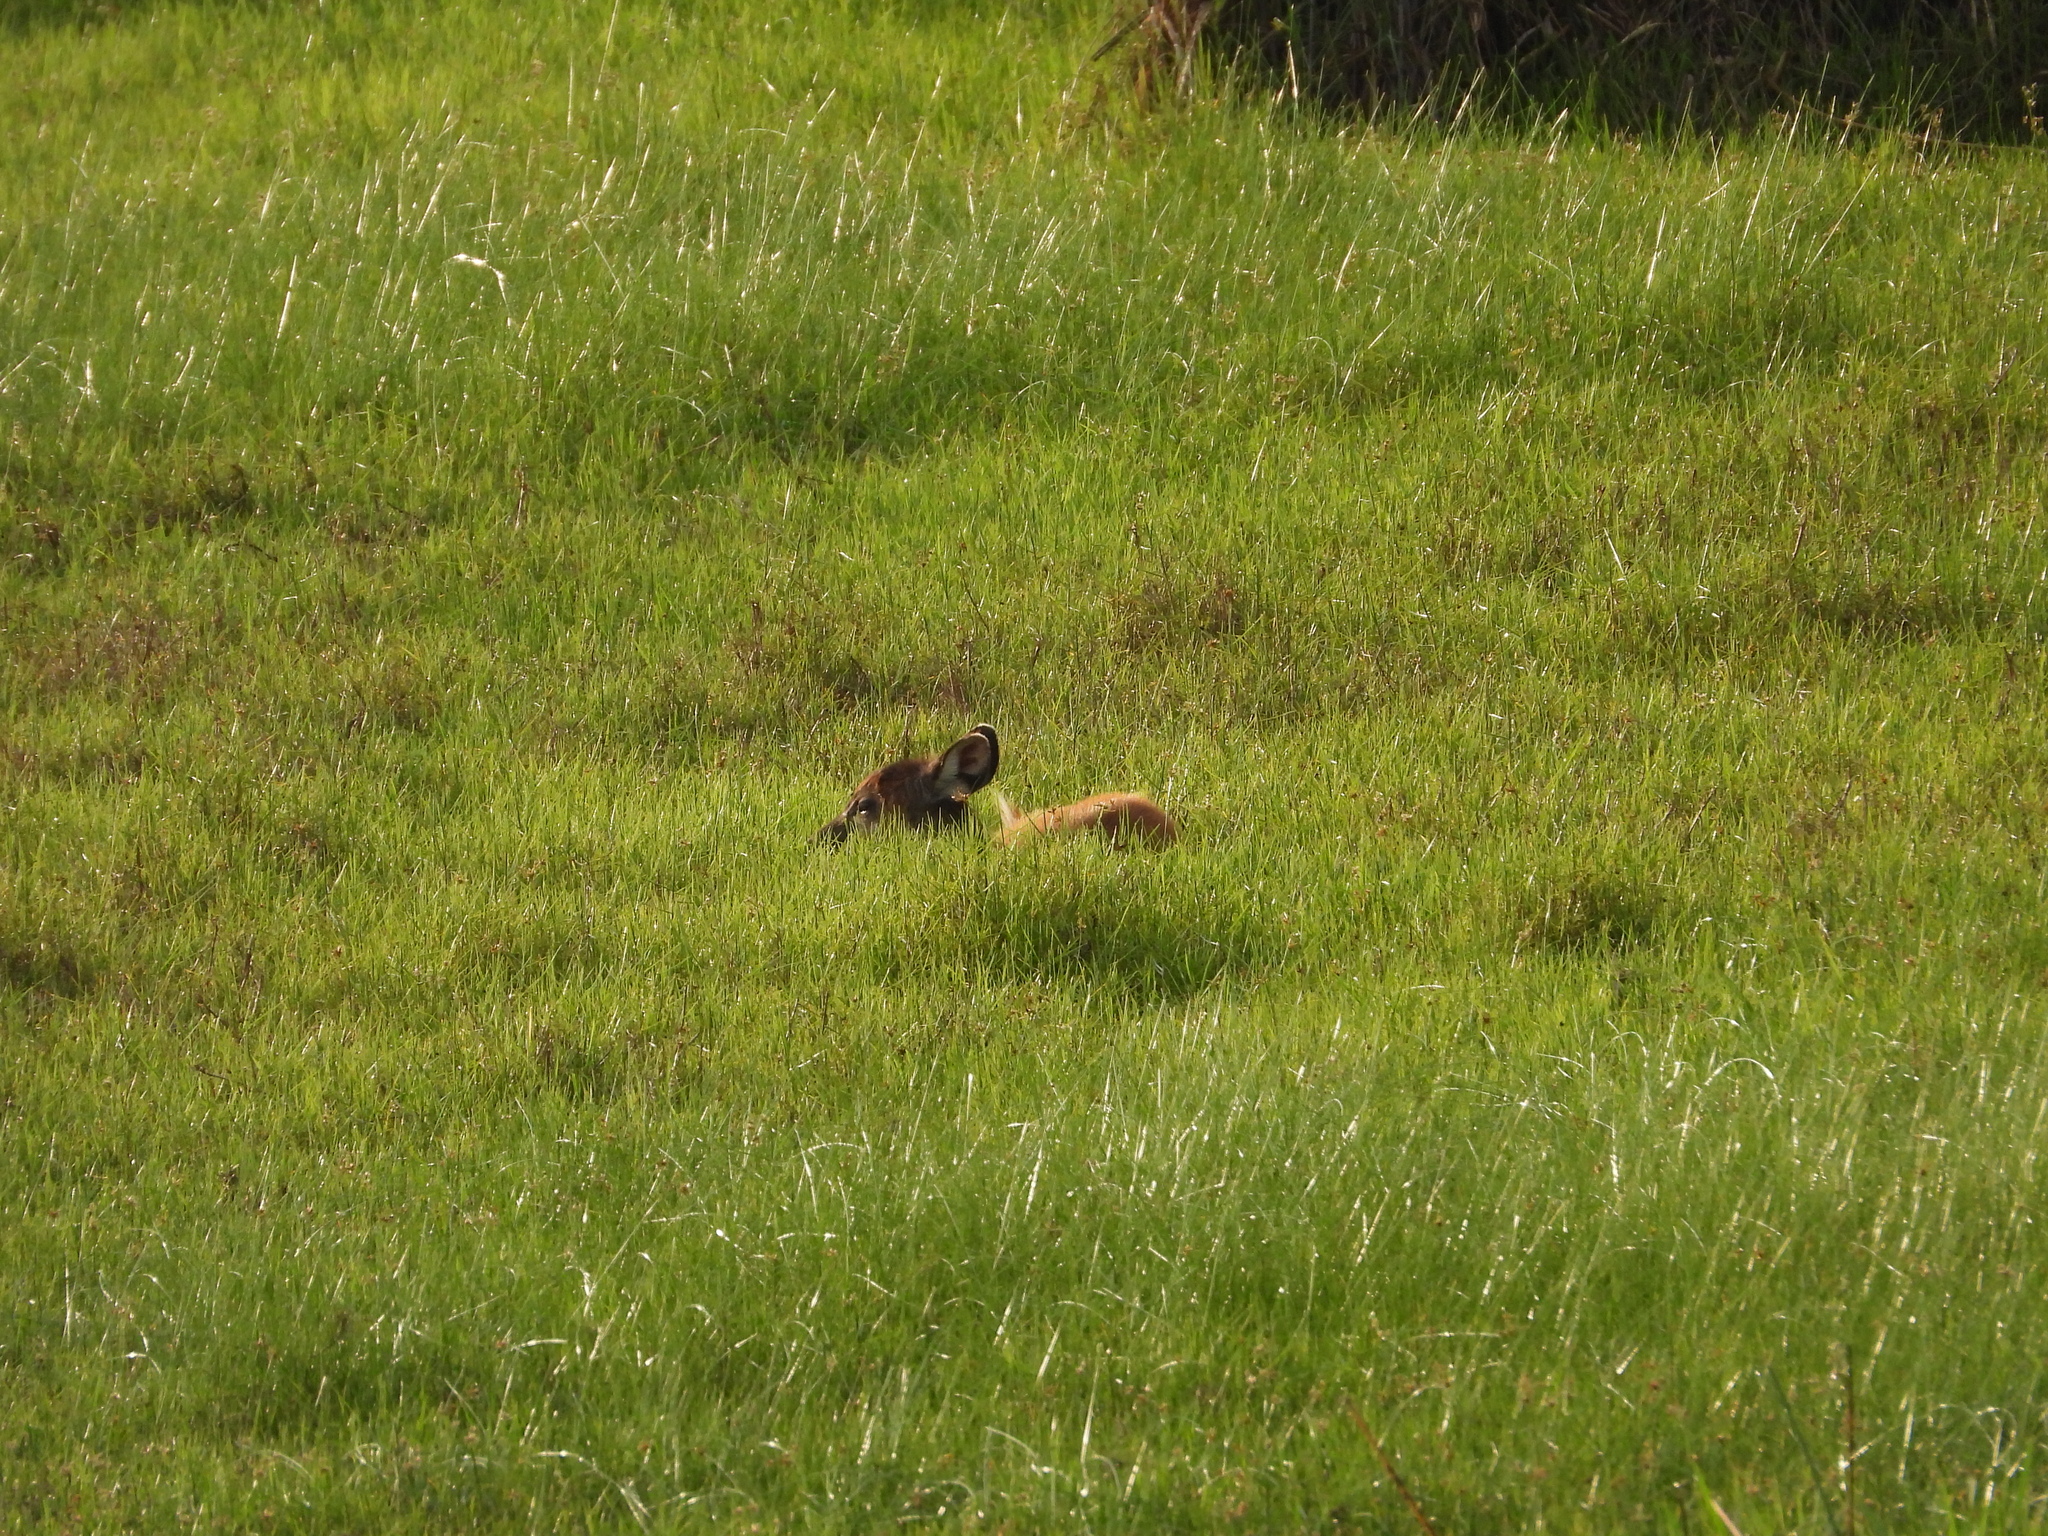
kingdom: Animalia
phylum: Chordata
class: Mammalia
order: Artiodactyla
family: Bovidae
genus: Tragelaphus
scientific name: Tragelaphus spekii
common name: Sitatunga
